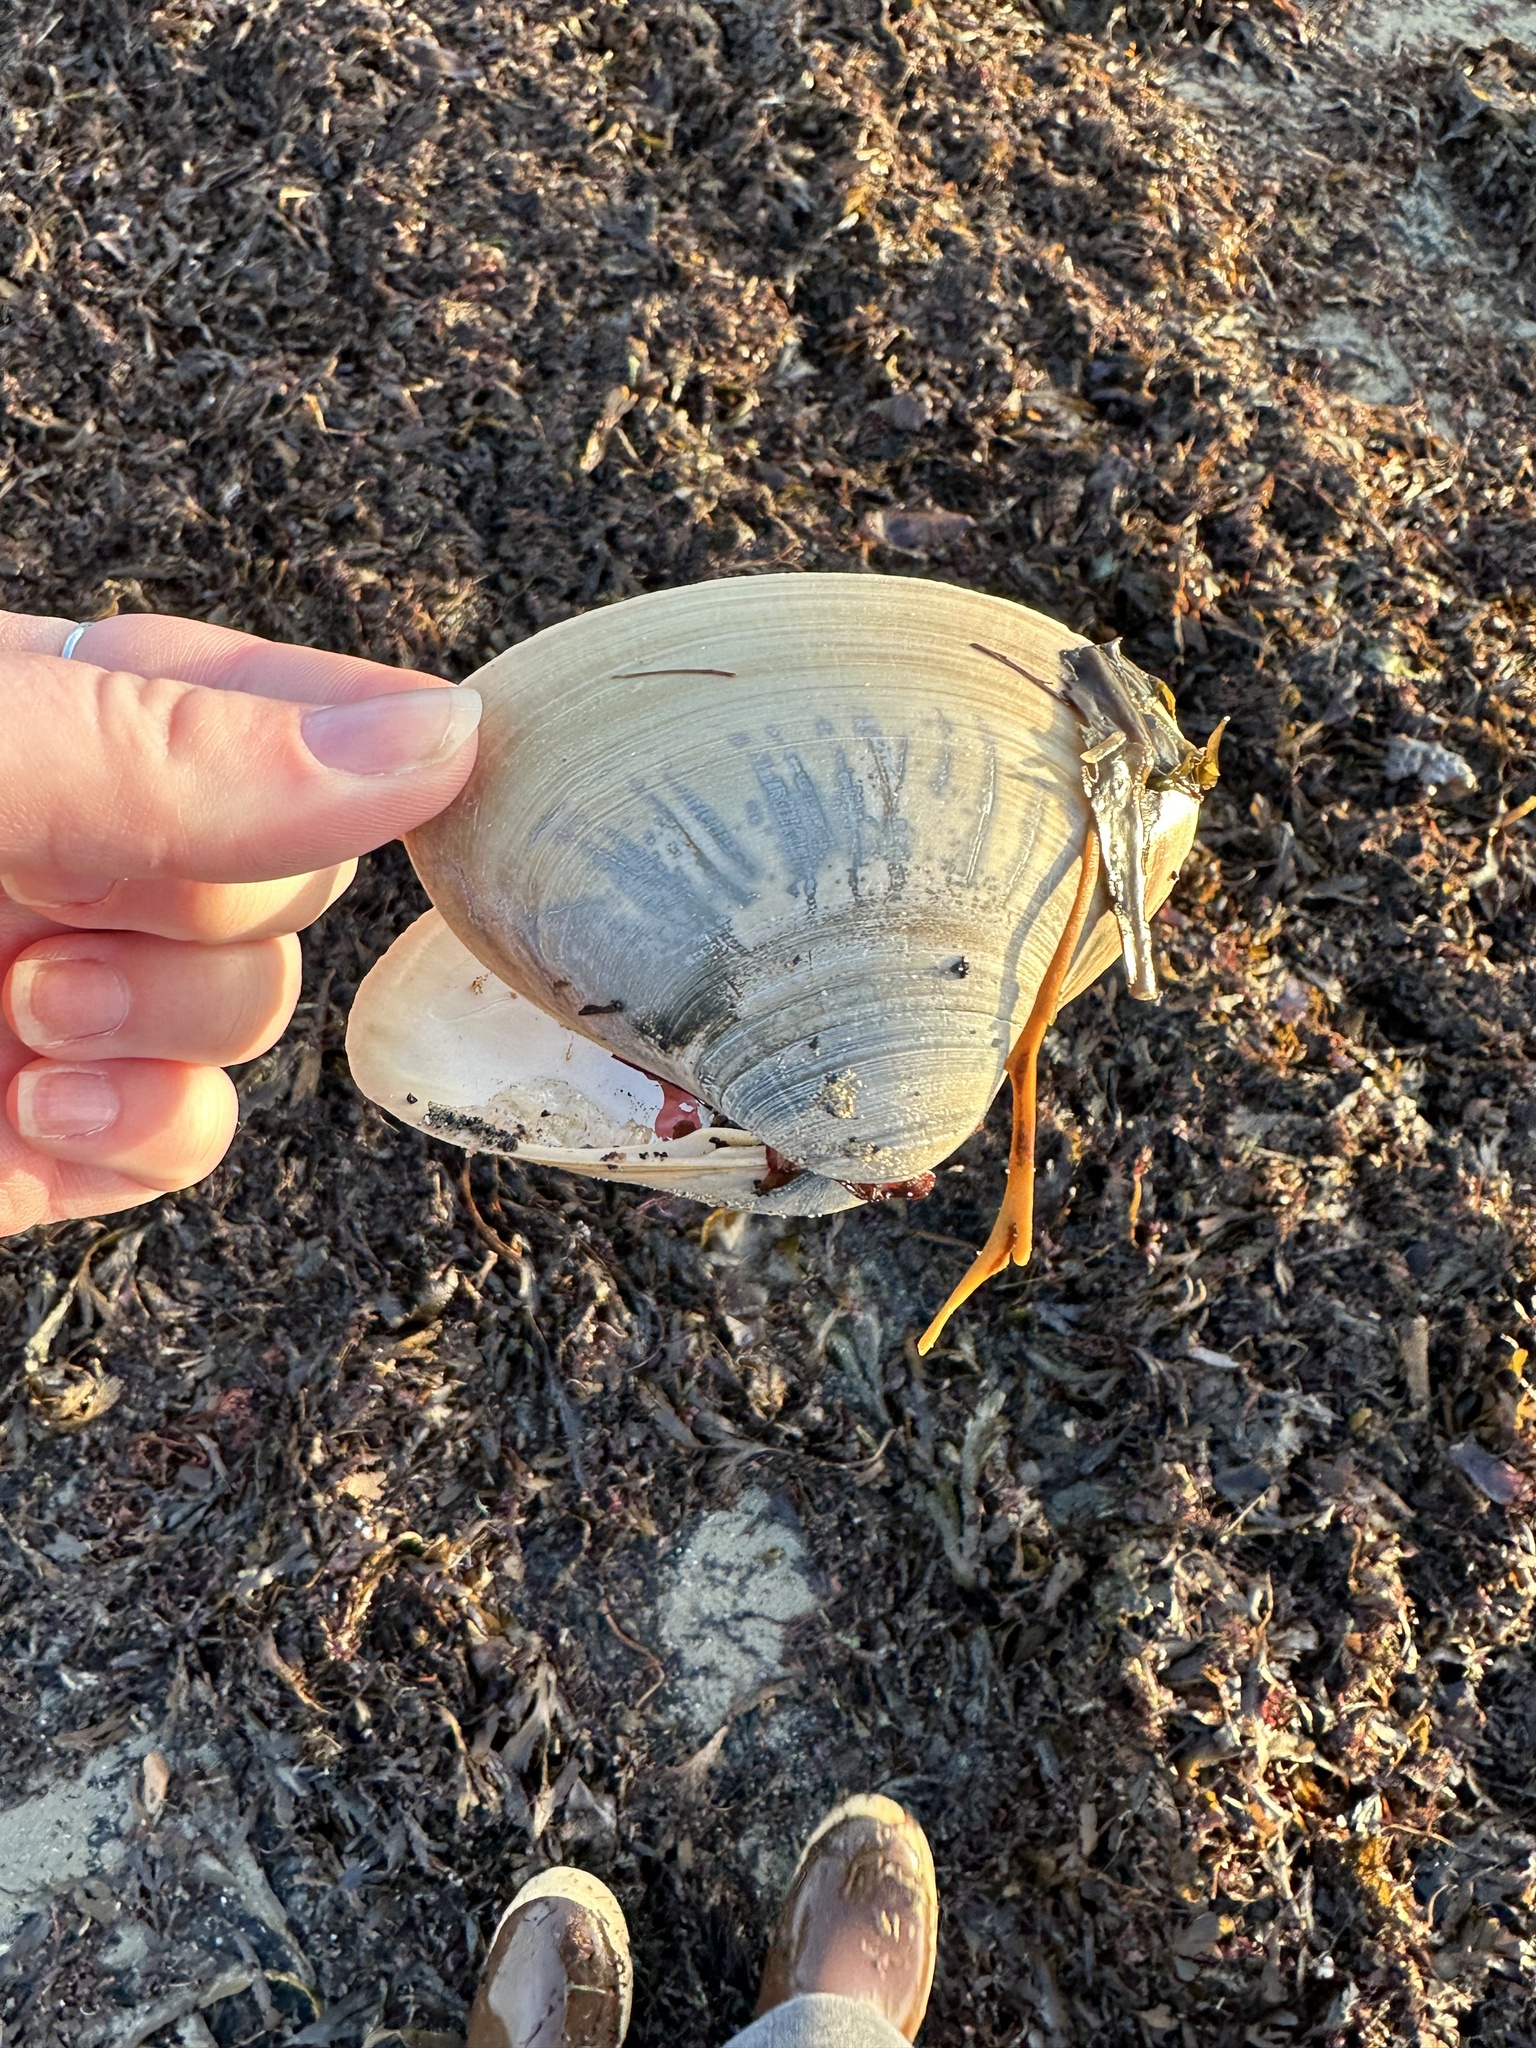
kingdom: Animalia
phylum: Mollusca
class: Bivalvia
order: Venerida
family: Mactridae
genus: Spisula
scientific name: Spisula solidissima
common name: Atlantic surf clam
